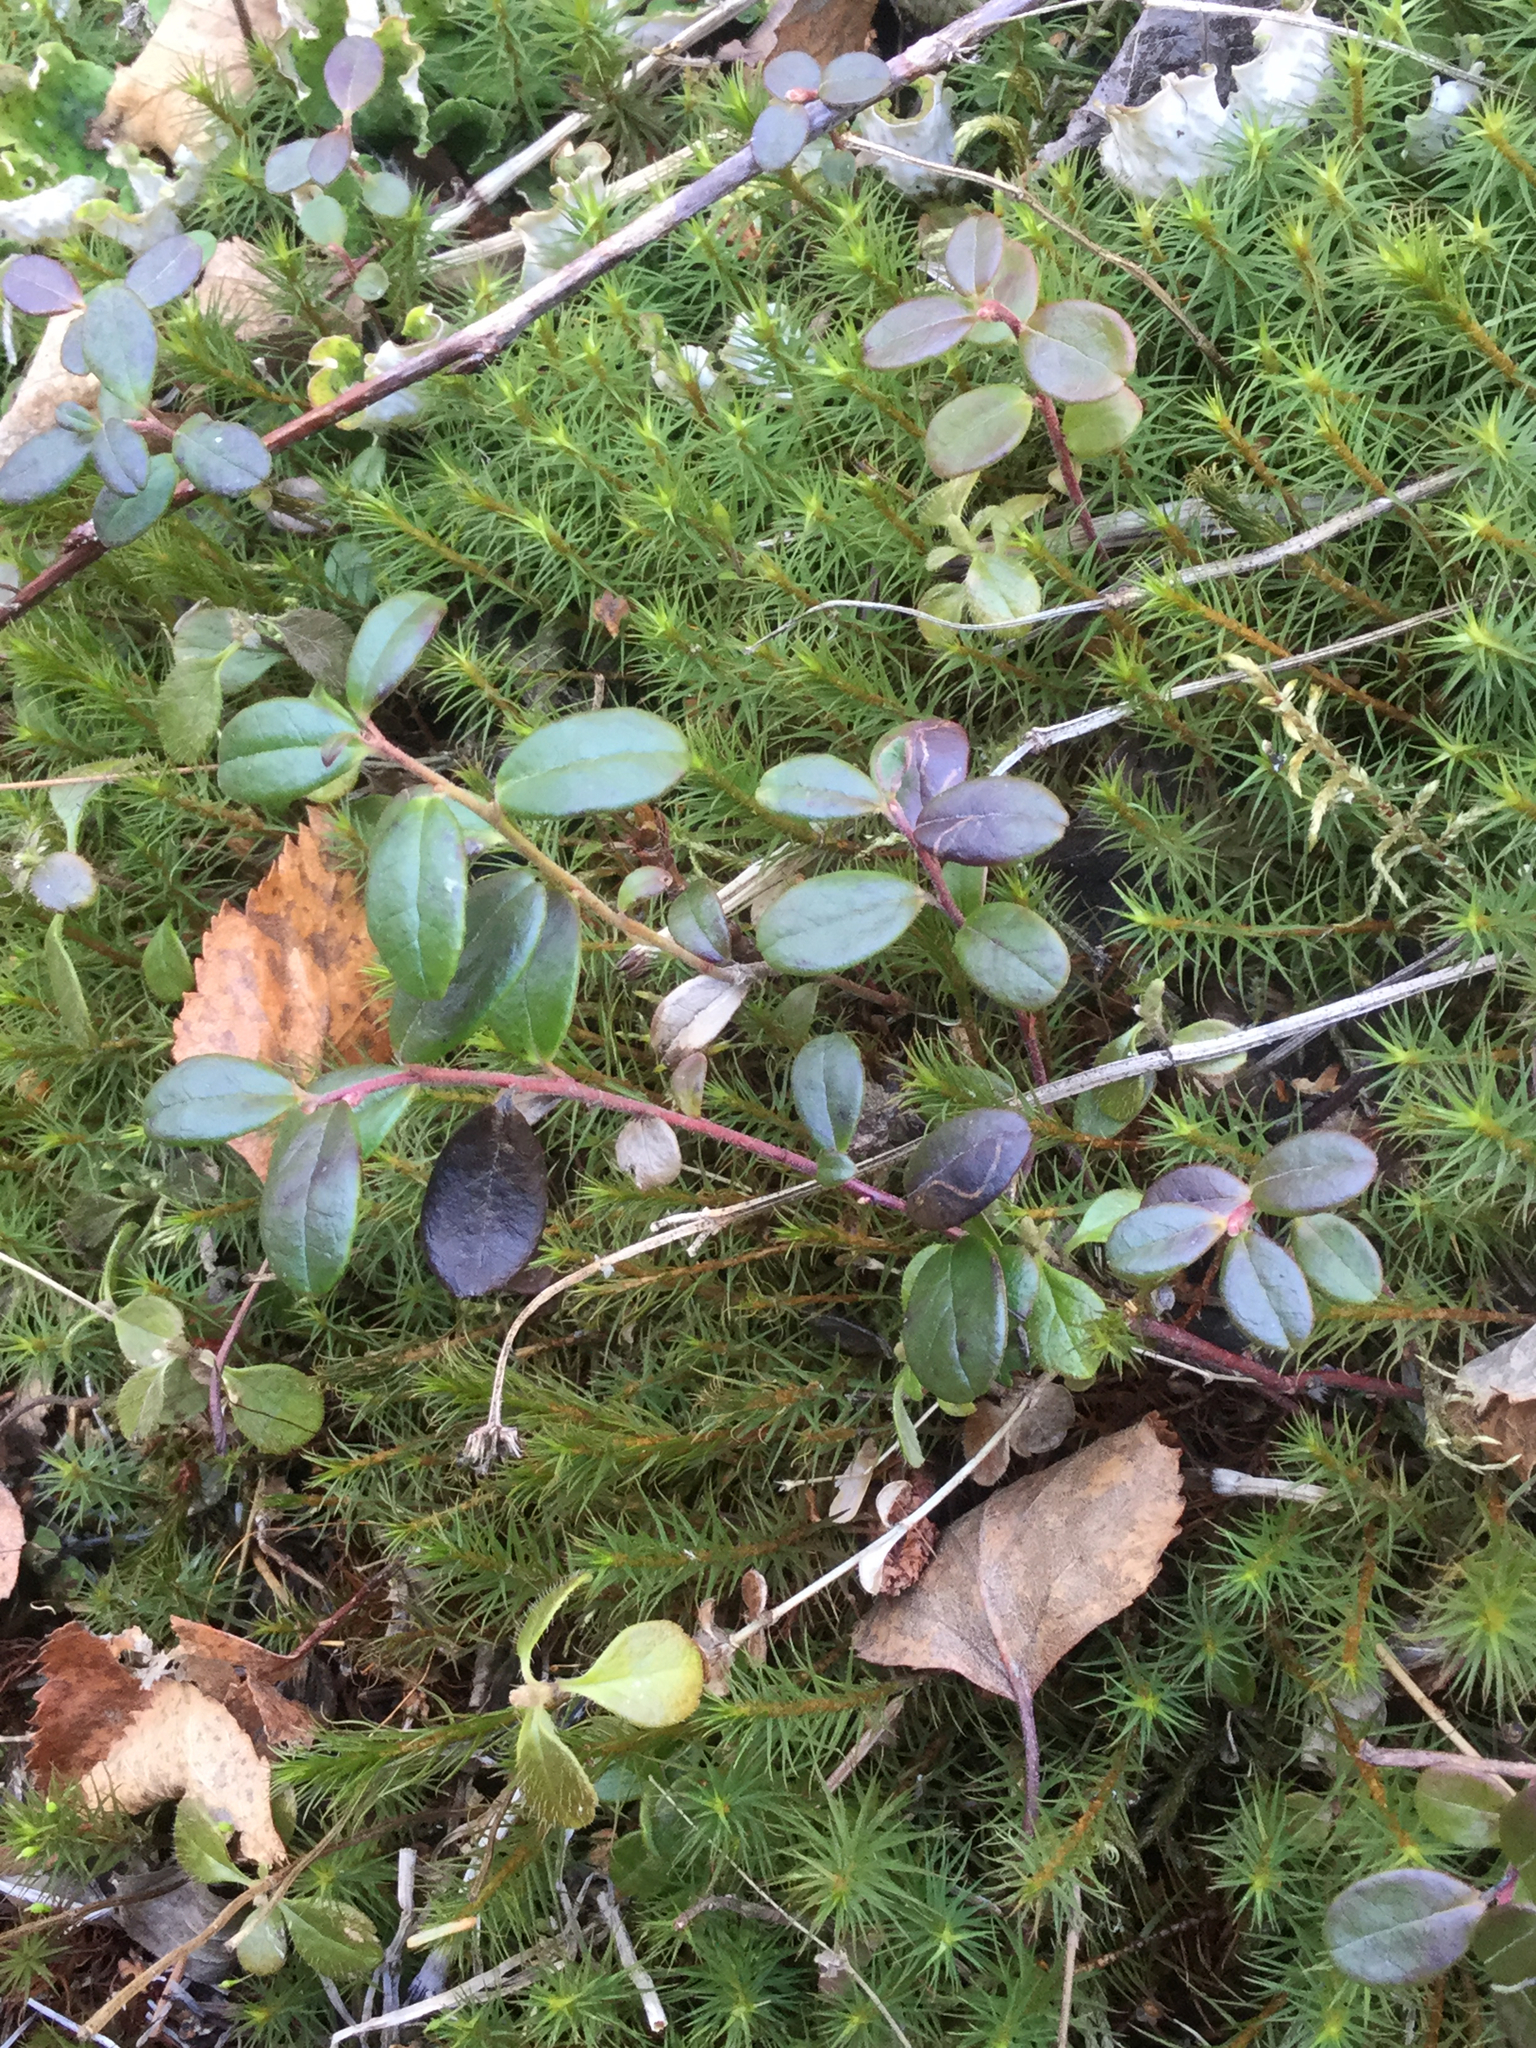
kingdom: Plantae
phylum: Tracheophyta
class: Magnoliopsida
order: Ericales
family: Ericaceae
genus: Vaccinium
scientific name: Vaccinium vitis-idaea
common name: Cowberry
